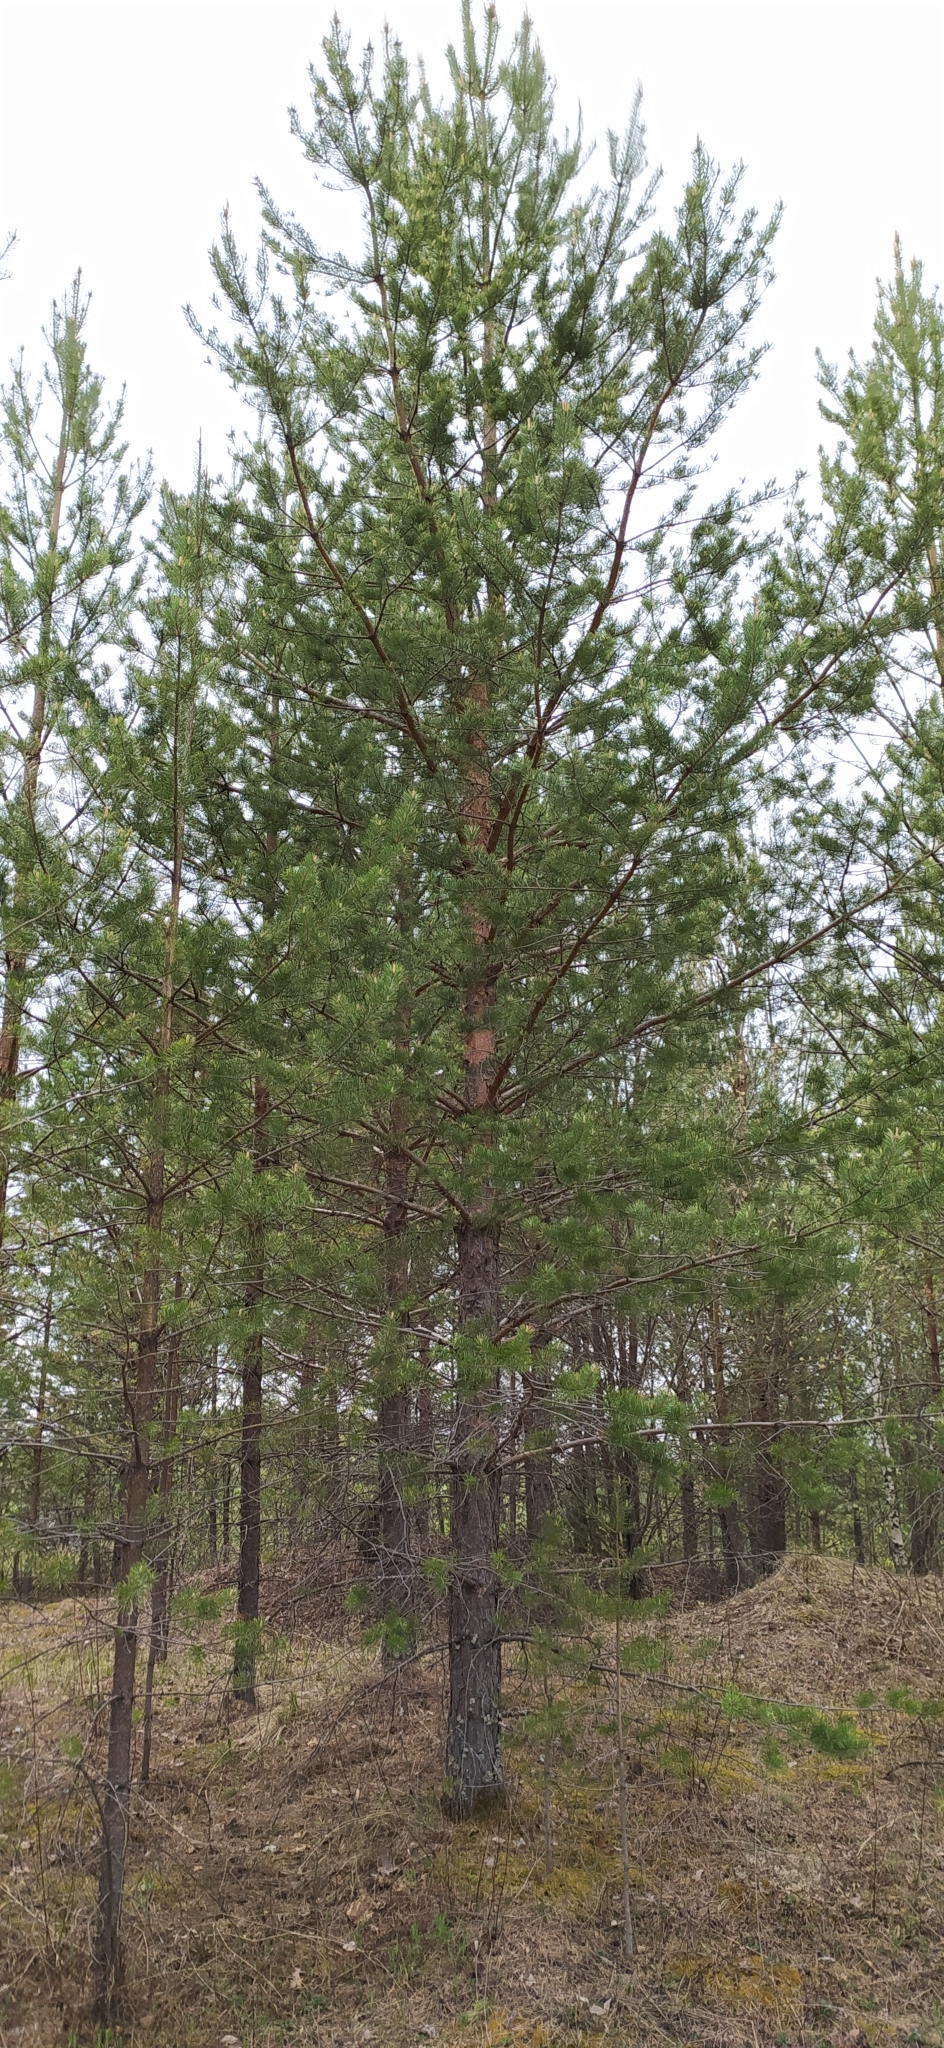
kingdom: Plantae
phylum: Tracheophyta
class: Pinopsida
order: Pinales
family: Pinaceae
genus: Pinus
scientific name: Pinus sylvestris
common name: Scots pine
